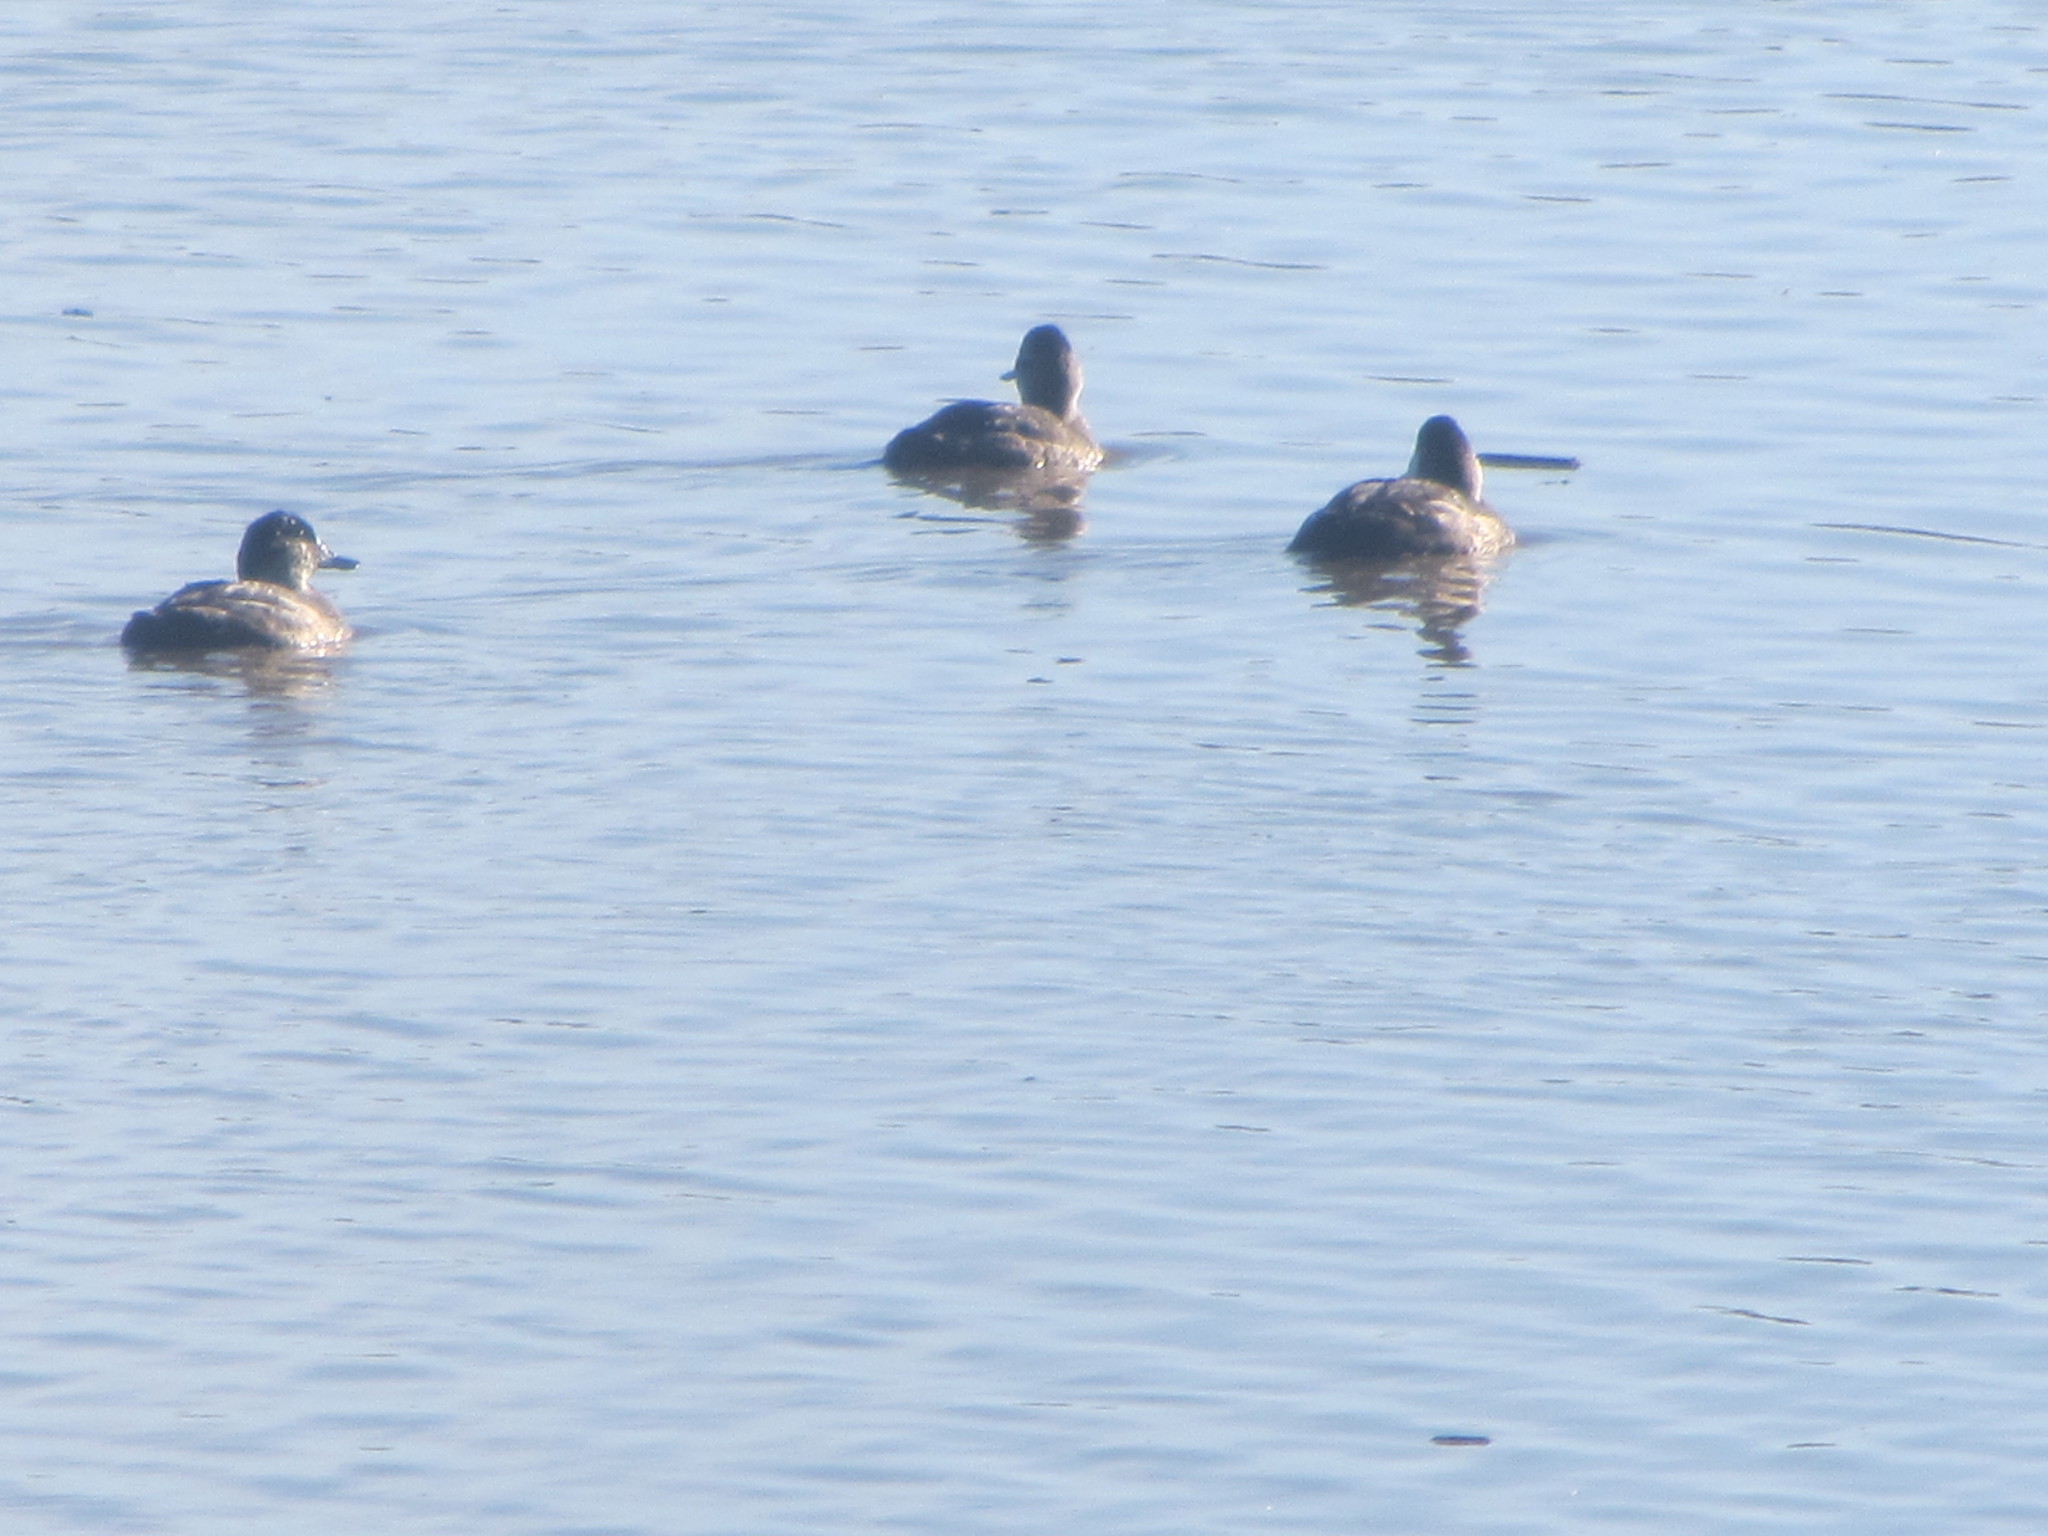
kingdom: Animalia
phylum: Chordata
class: Aves
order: Anseriformes
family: Anatidae
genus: Anas
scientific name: Anas platyrhynchos
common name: Mallard
